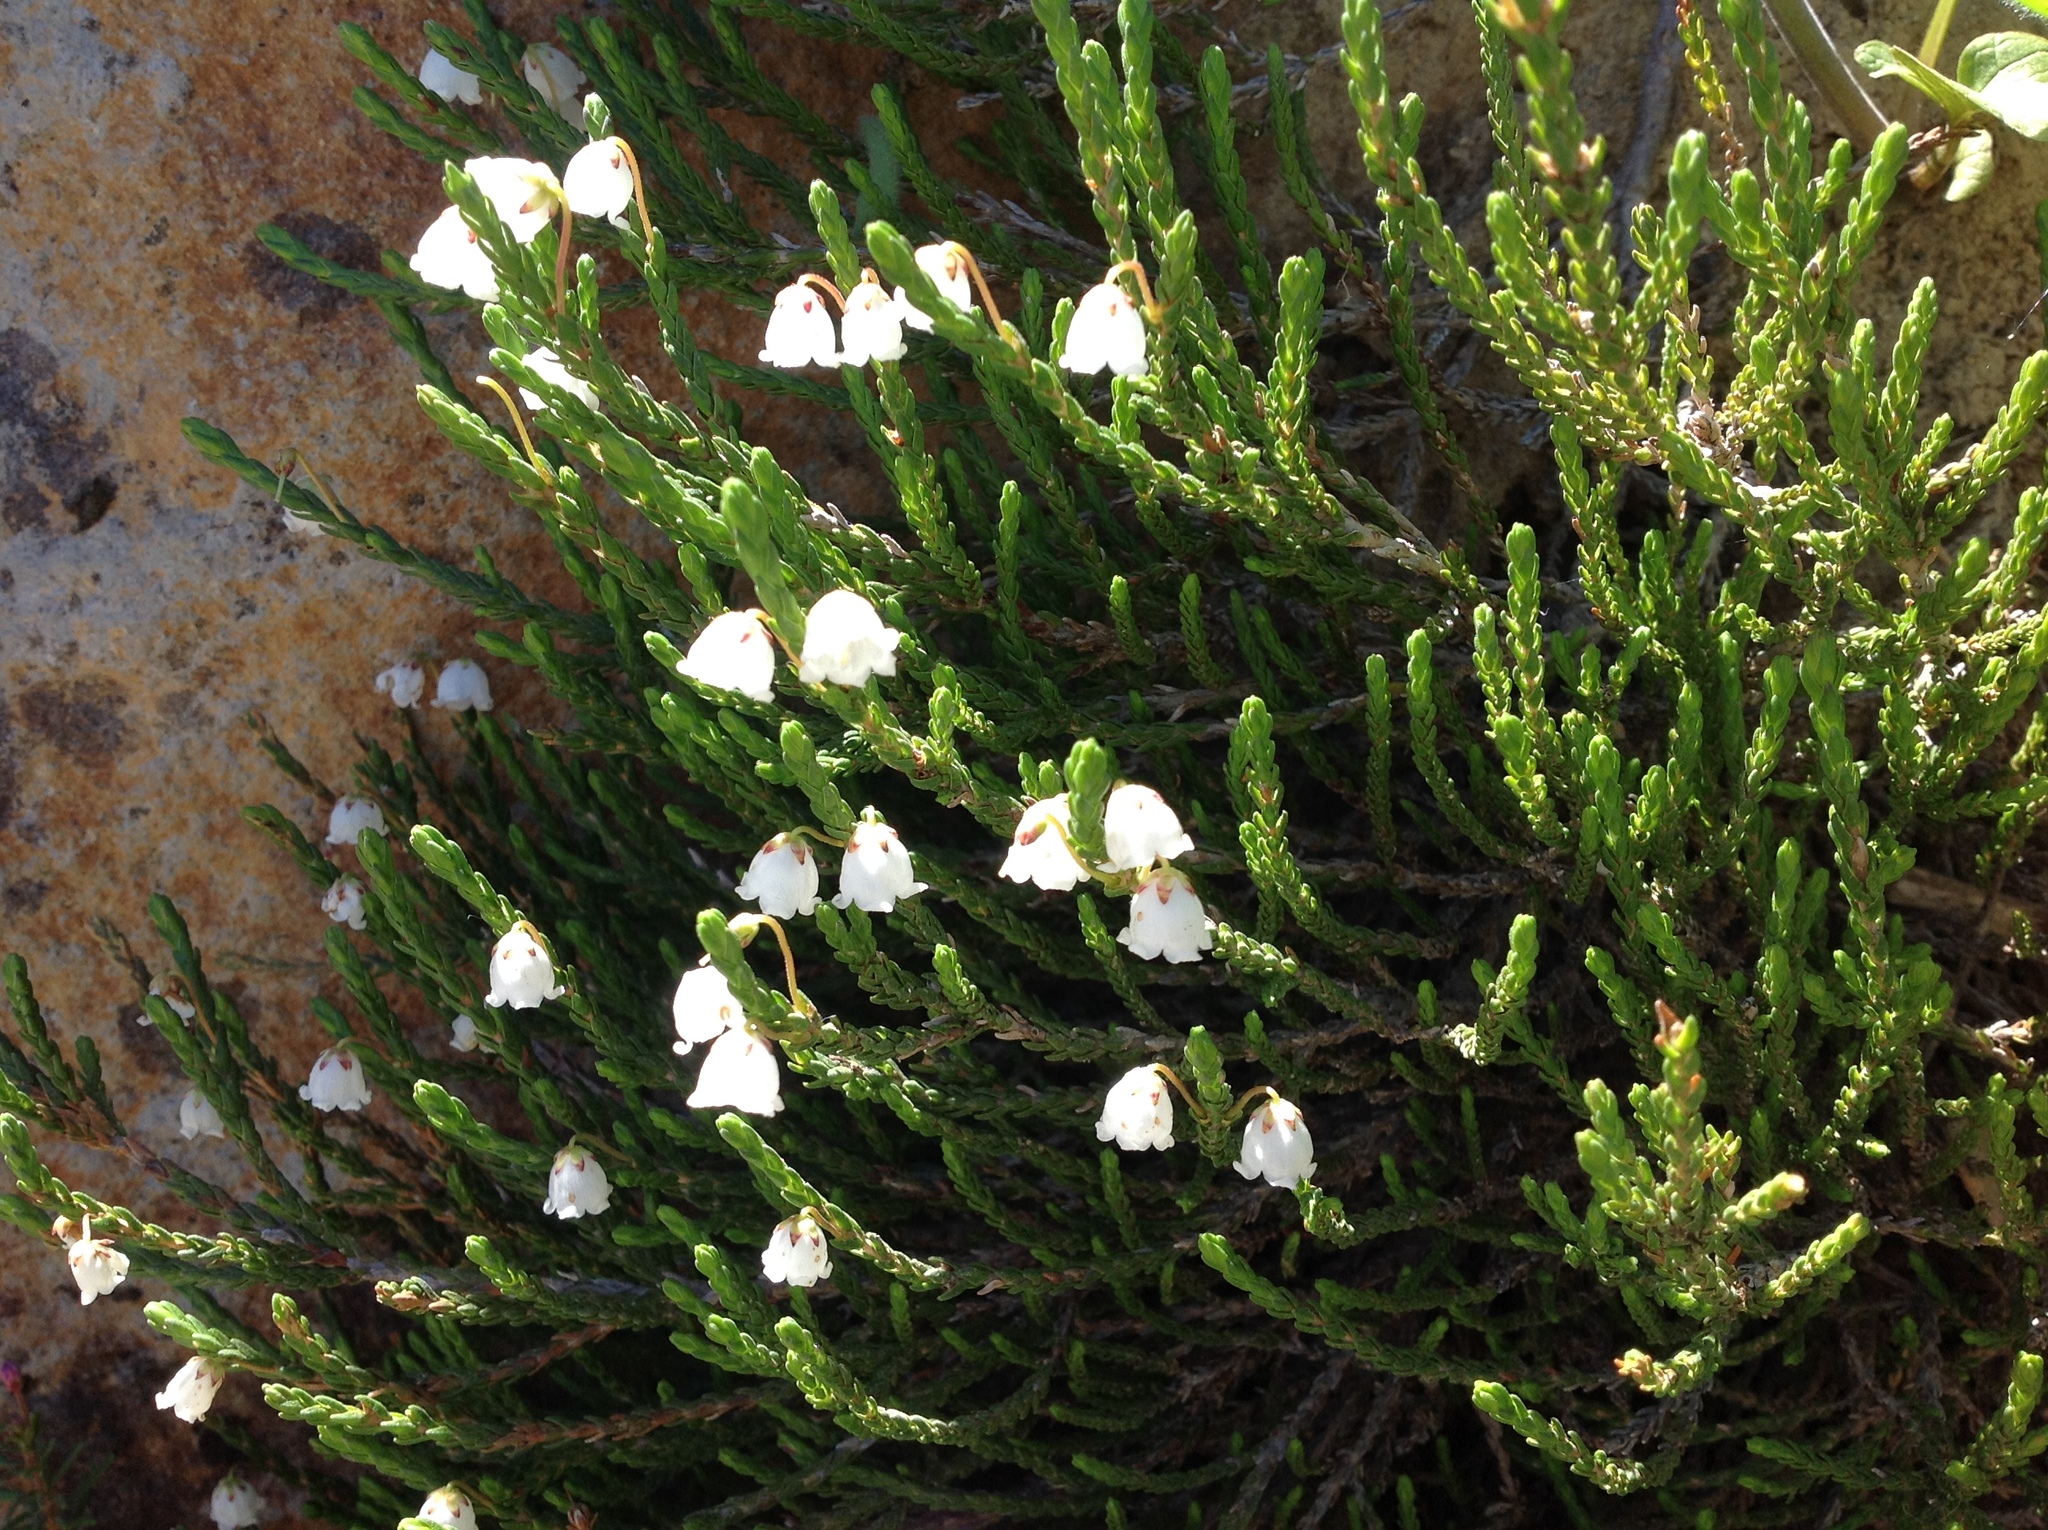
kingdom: Plantae
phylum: Tracheophyta
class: Magnoliopsida
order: Ericales
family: Ericaceae
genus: Cassiope
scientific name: Cassiope mertensiana
